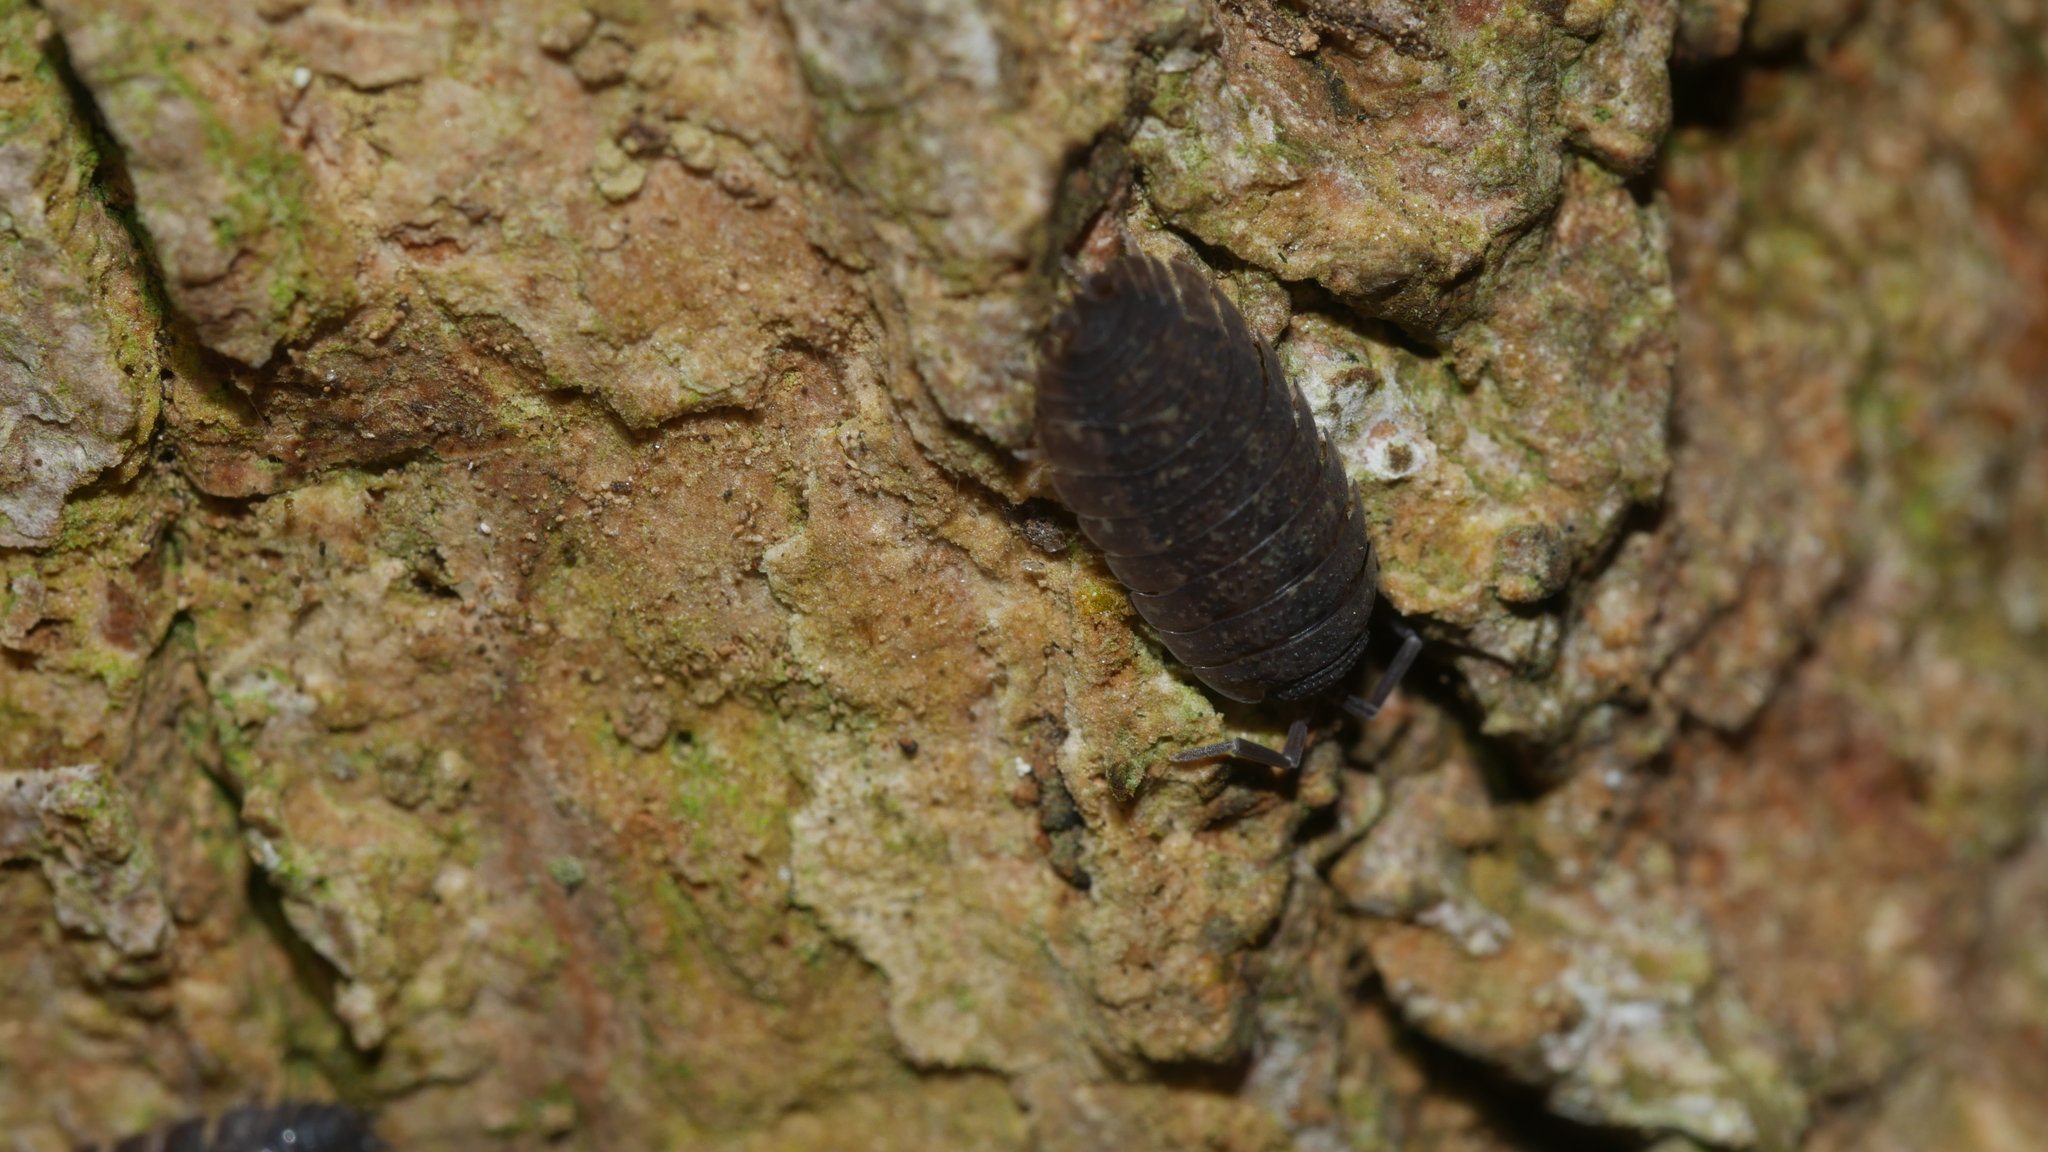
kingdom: Animalia
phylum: Arthropoda
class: Malacostraca
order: Isopoda
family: Porcellionidae
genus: Porcellio
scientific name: Porcellio scaber
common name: Common rough woodlouse
